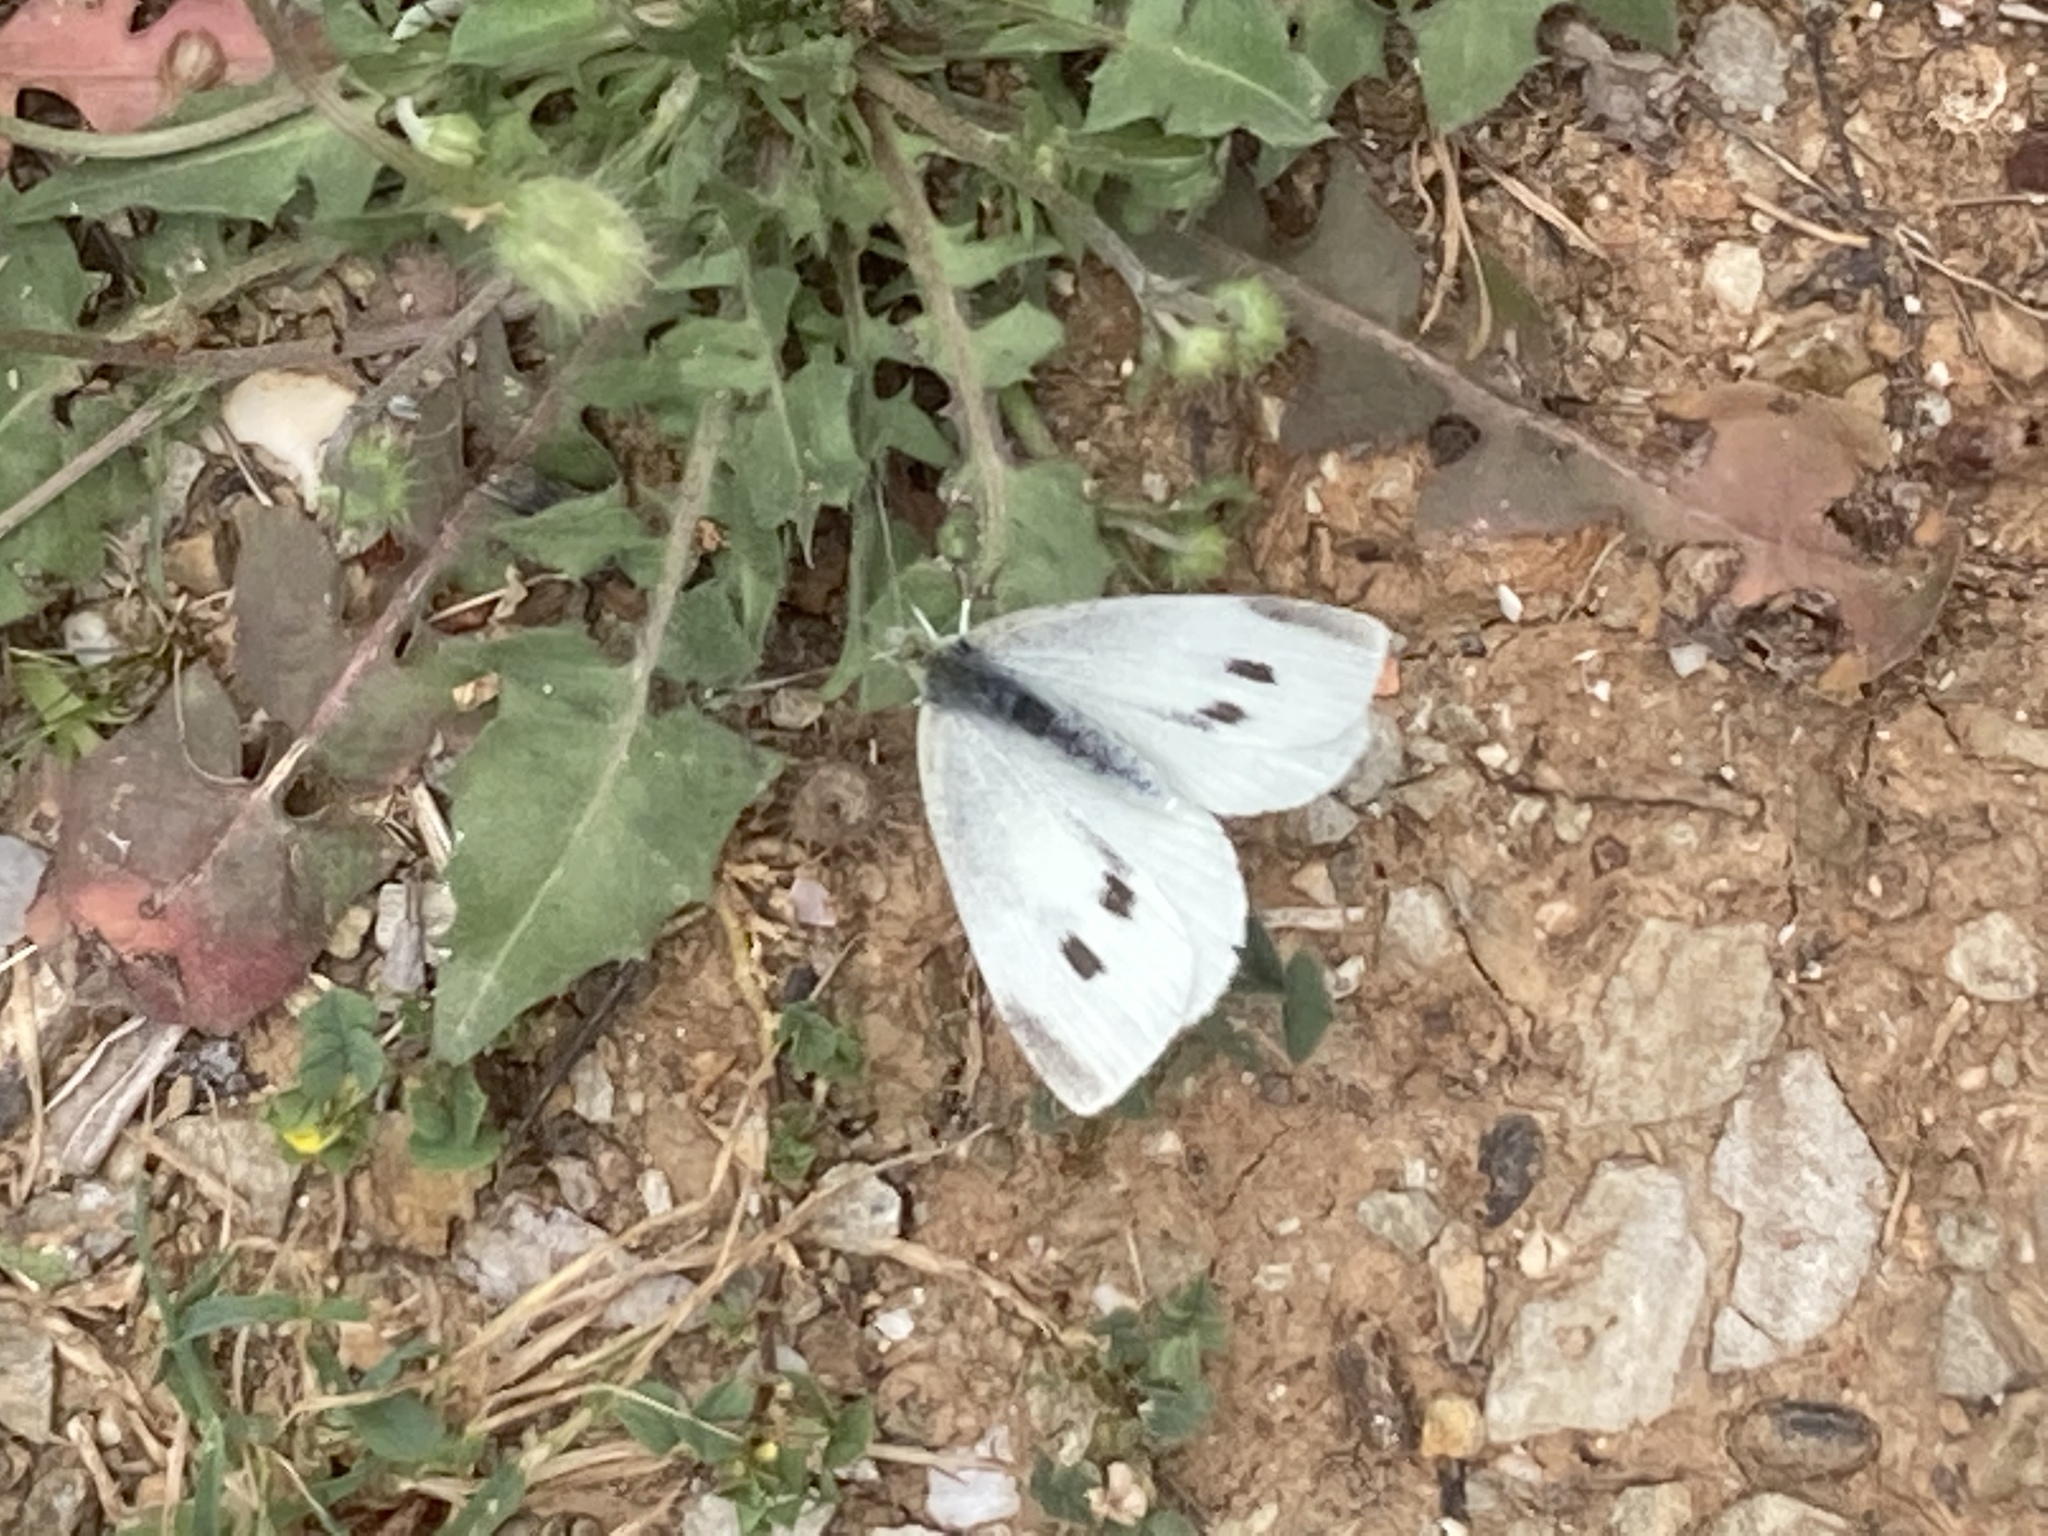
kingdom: Animalia
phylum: Arthropoda
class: Insecta
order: Lepidoptera
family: Pieridae
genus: Pieris
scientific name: Pieris rapae
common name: Small white
